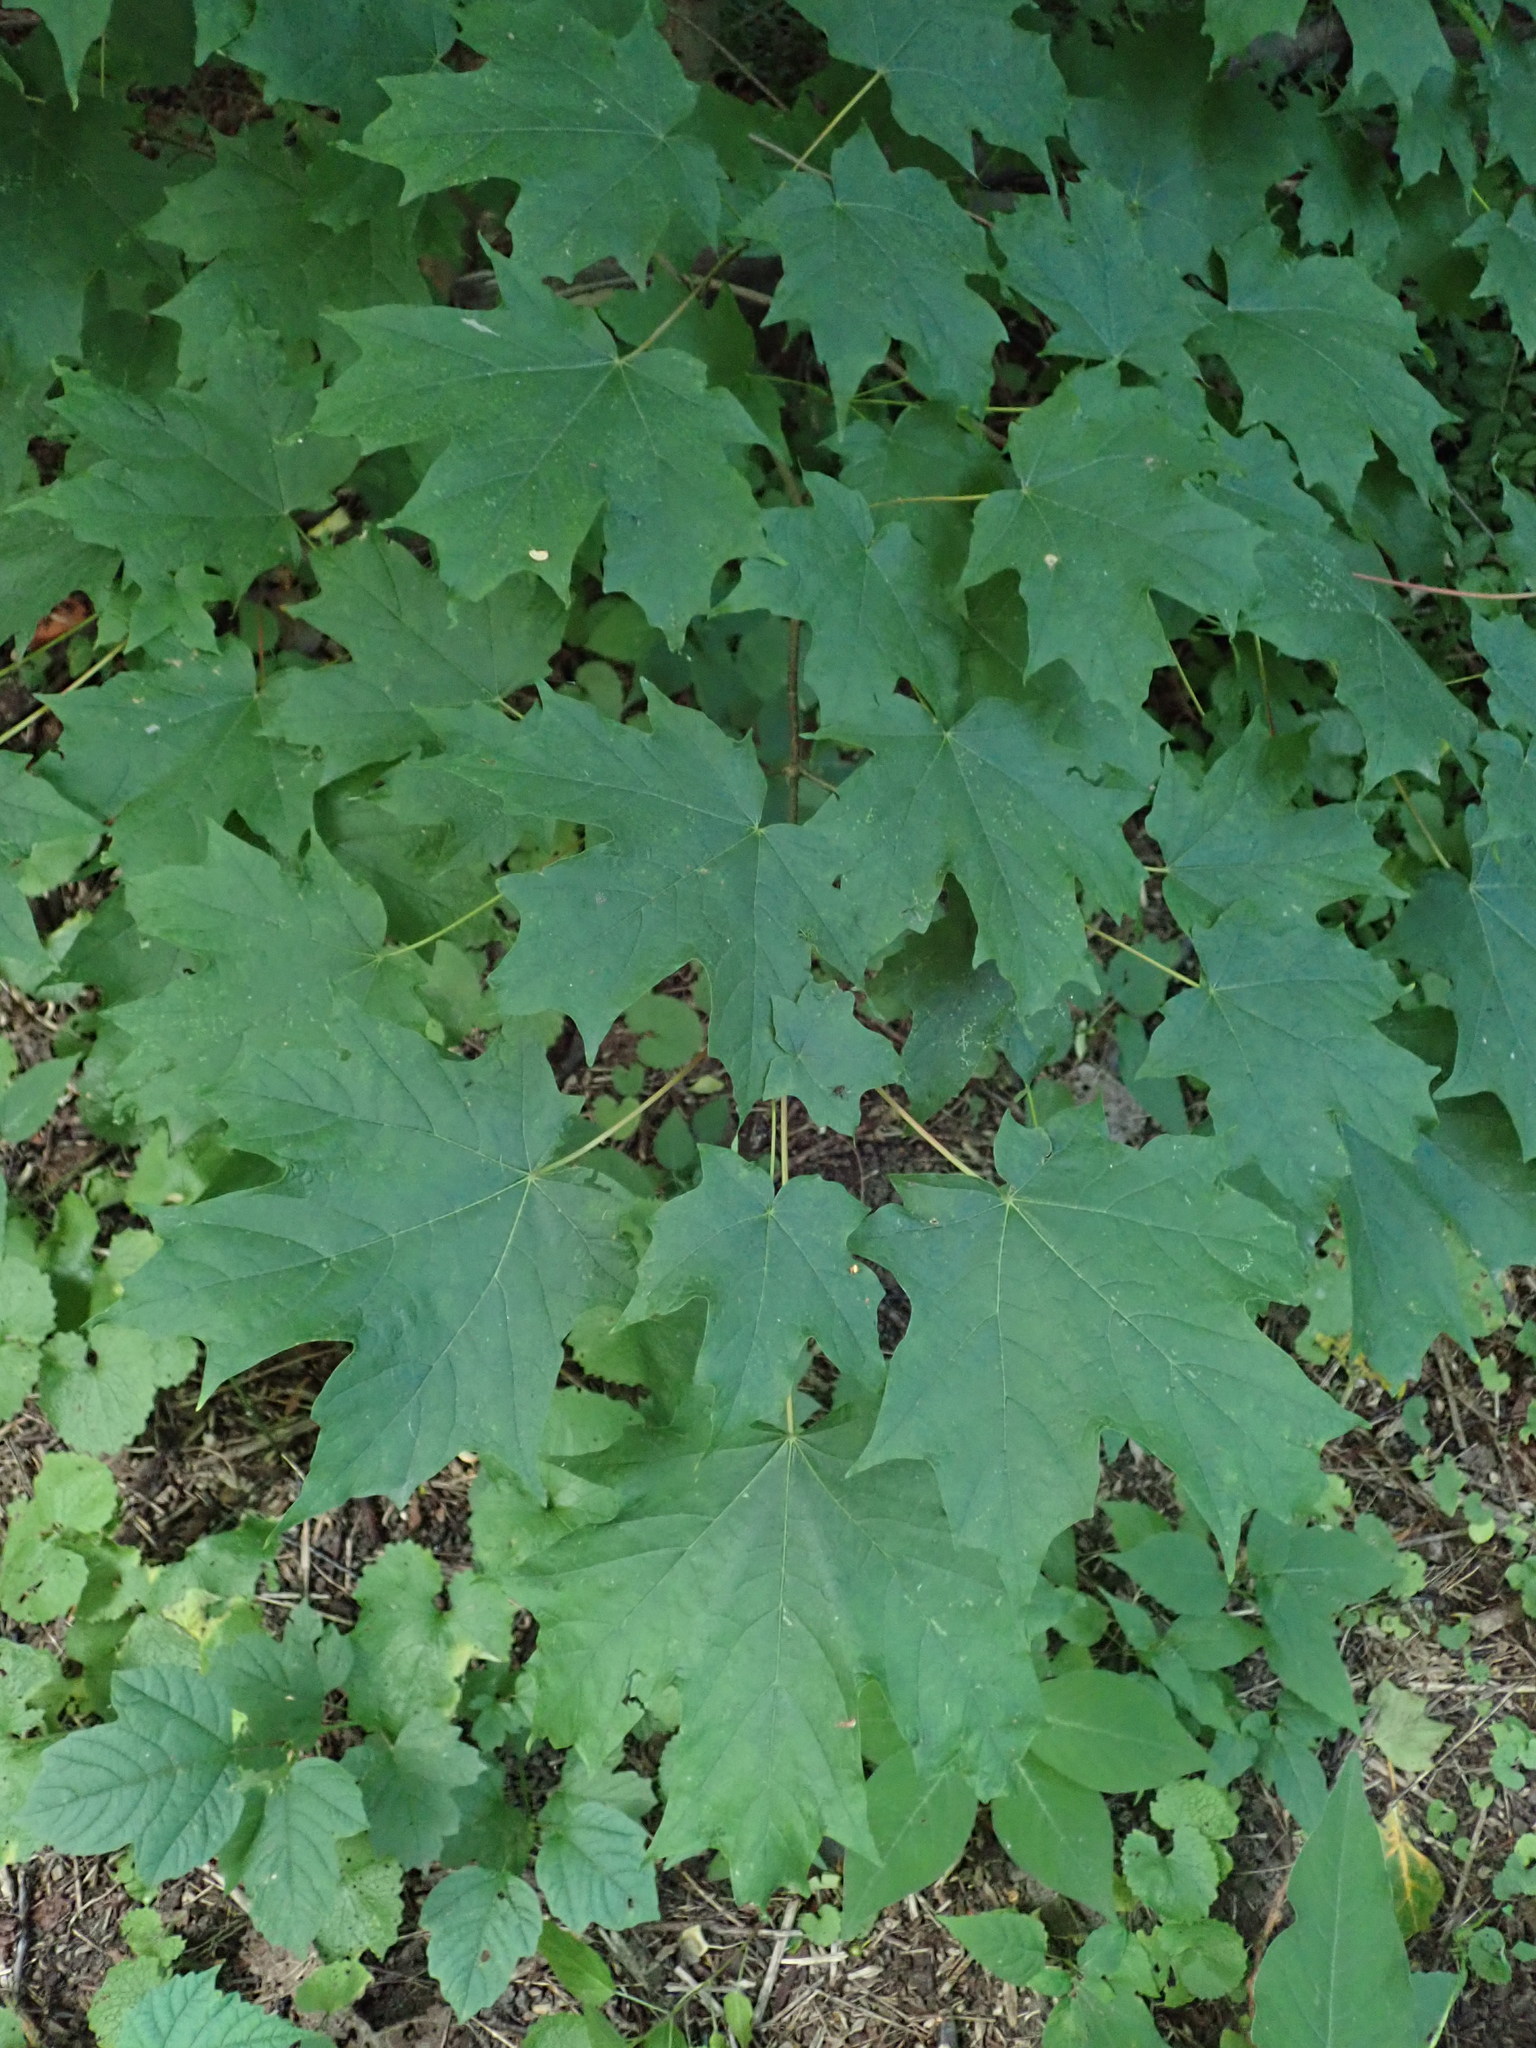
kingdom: Plantae
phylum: Tracheophyta
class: Magnoliopsida
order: Sapindales
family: Sapindaceae
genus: Acer
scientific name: Acer saccharum
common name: Sugar maple
